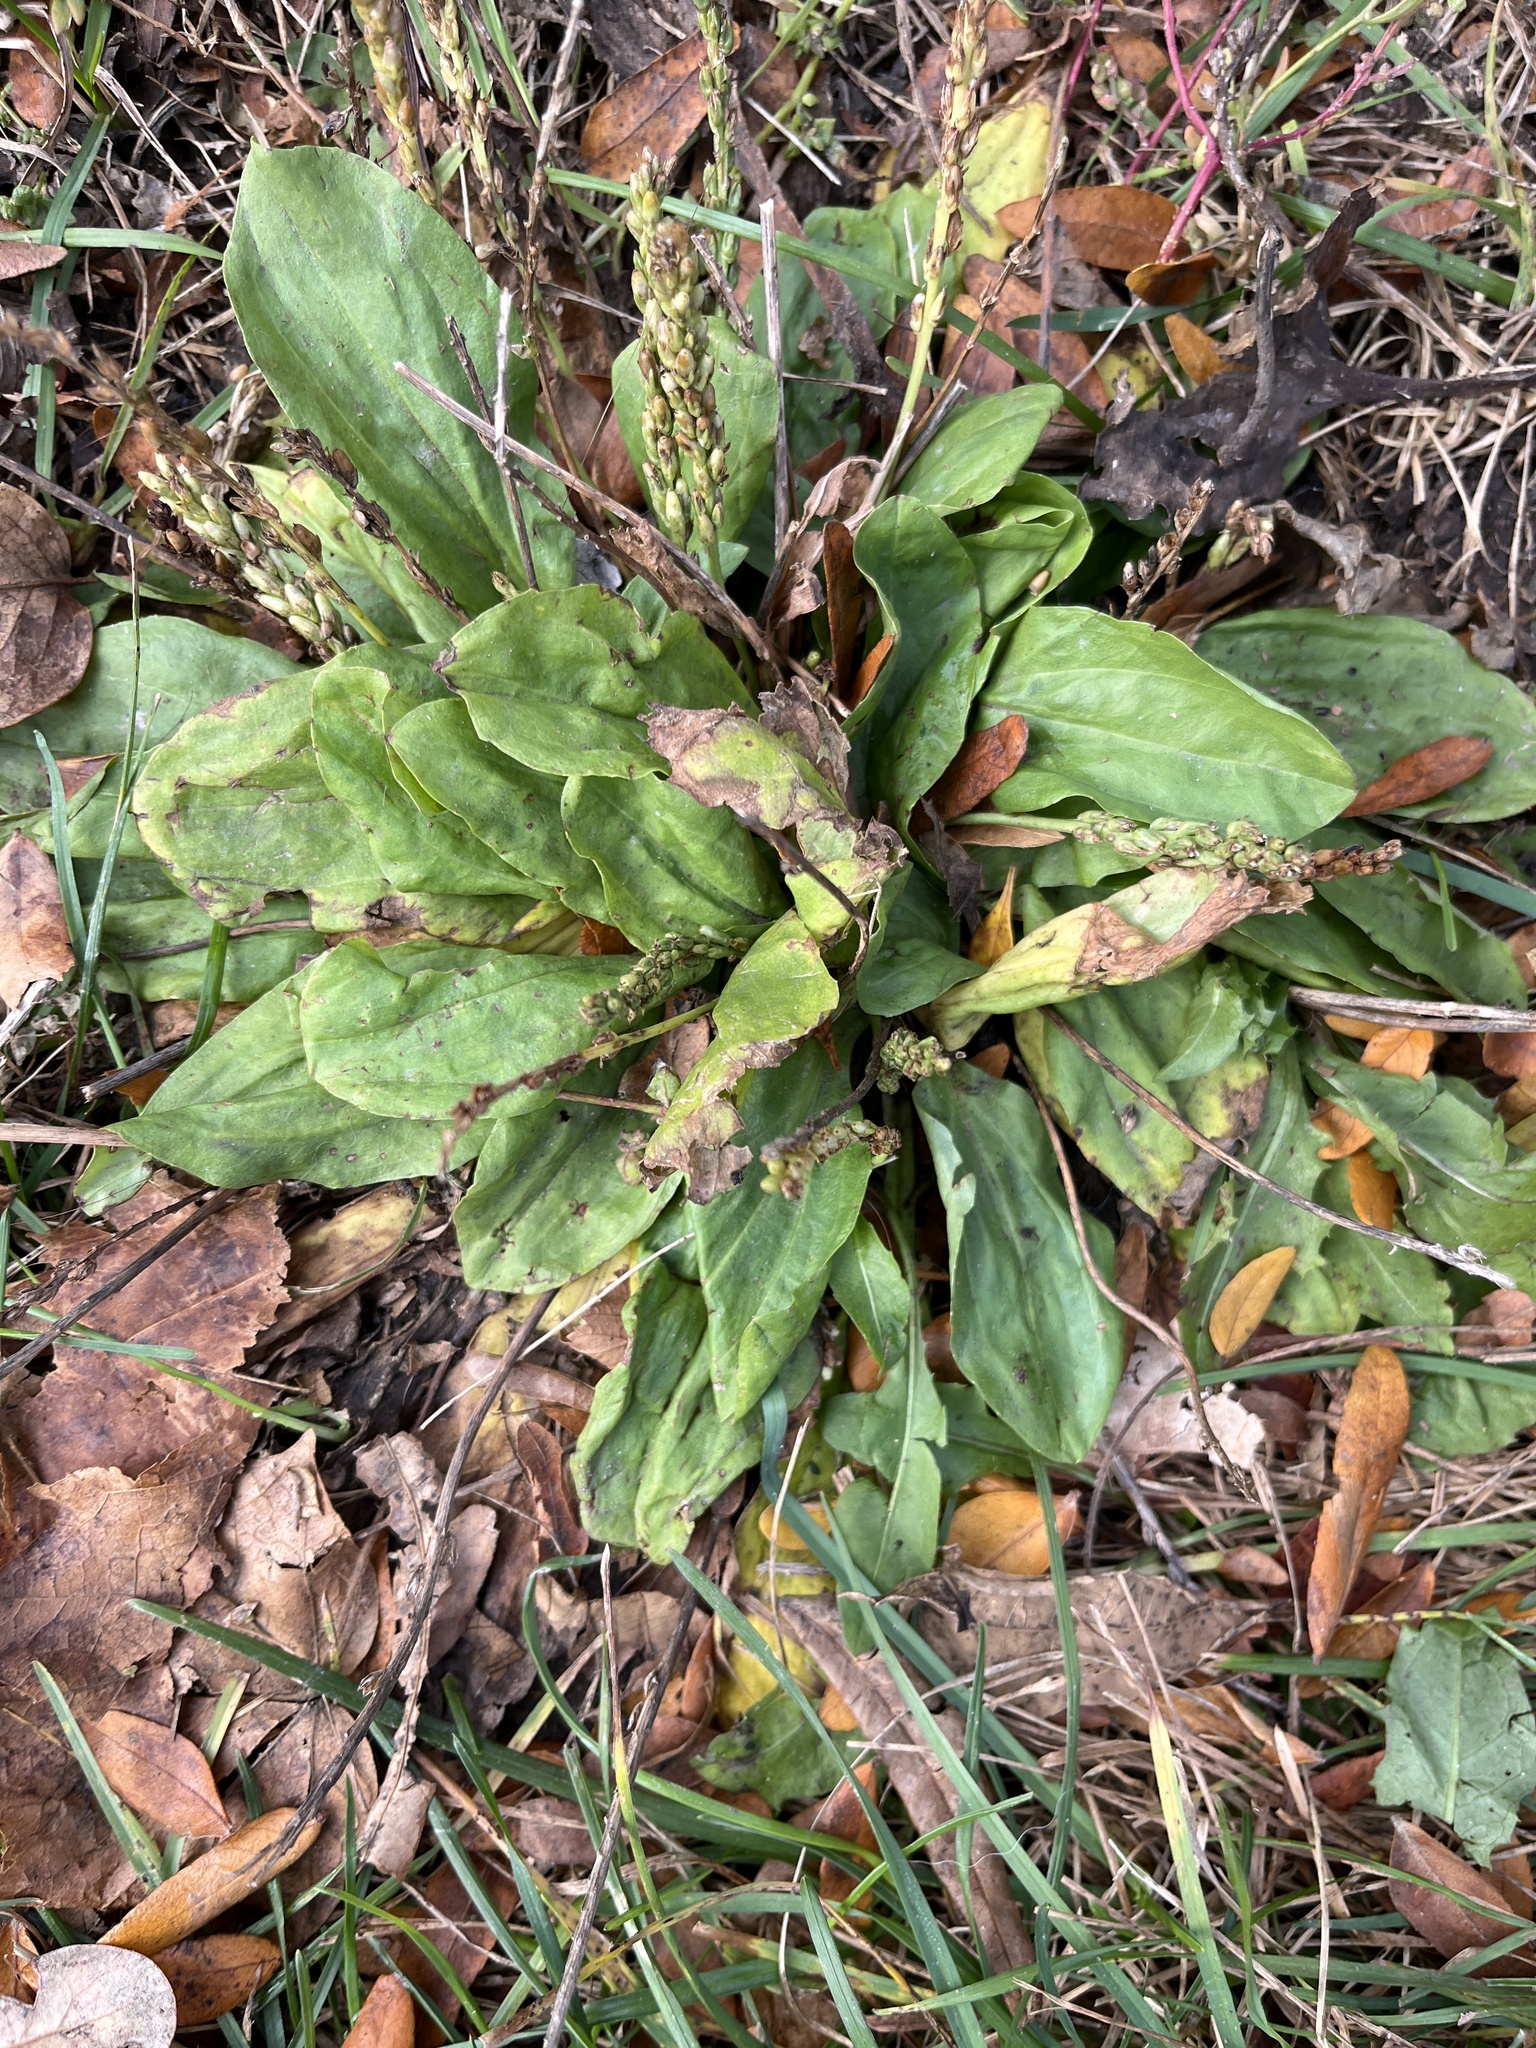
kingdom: Plantae
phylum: Tracheophyta
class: Magnoliopsida
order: Lamiales
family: Plantaginaceae
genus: Plantago
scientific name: Plantago rugelii
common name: American plantain
